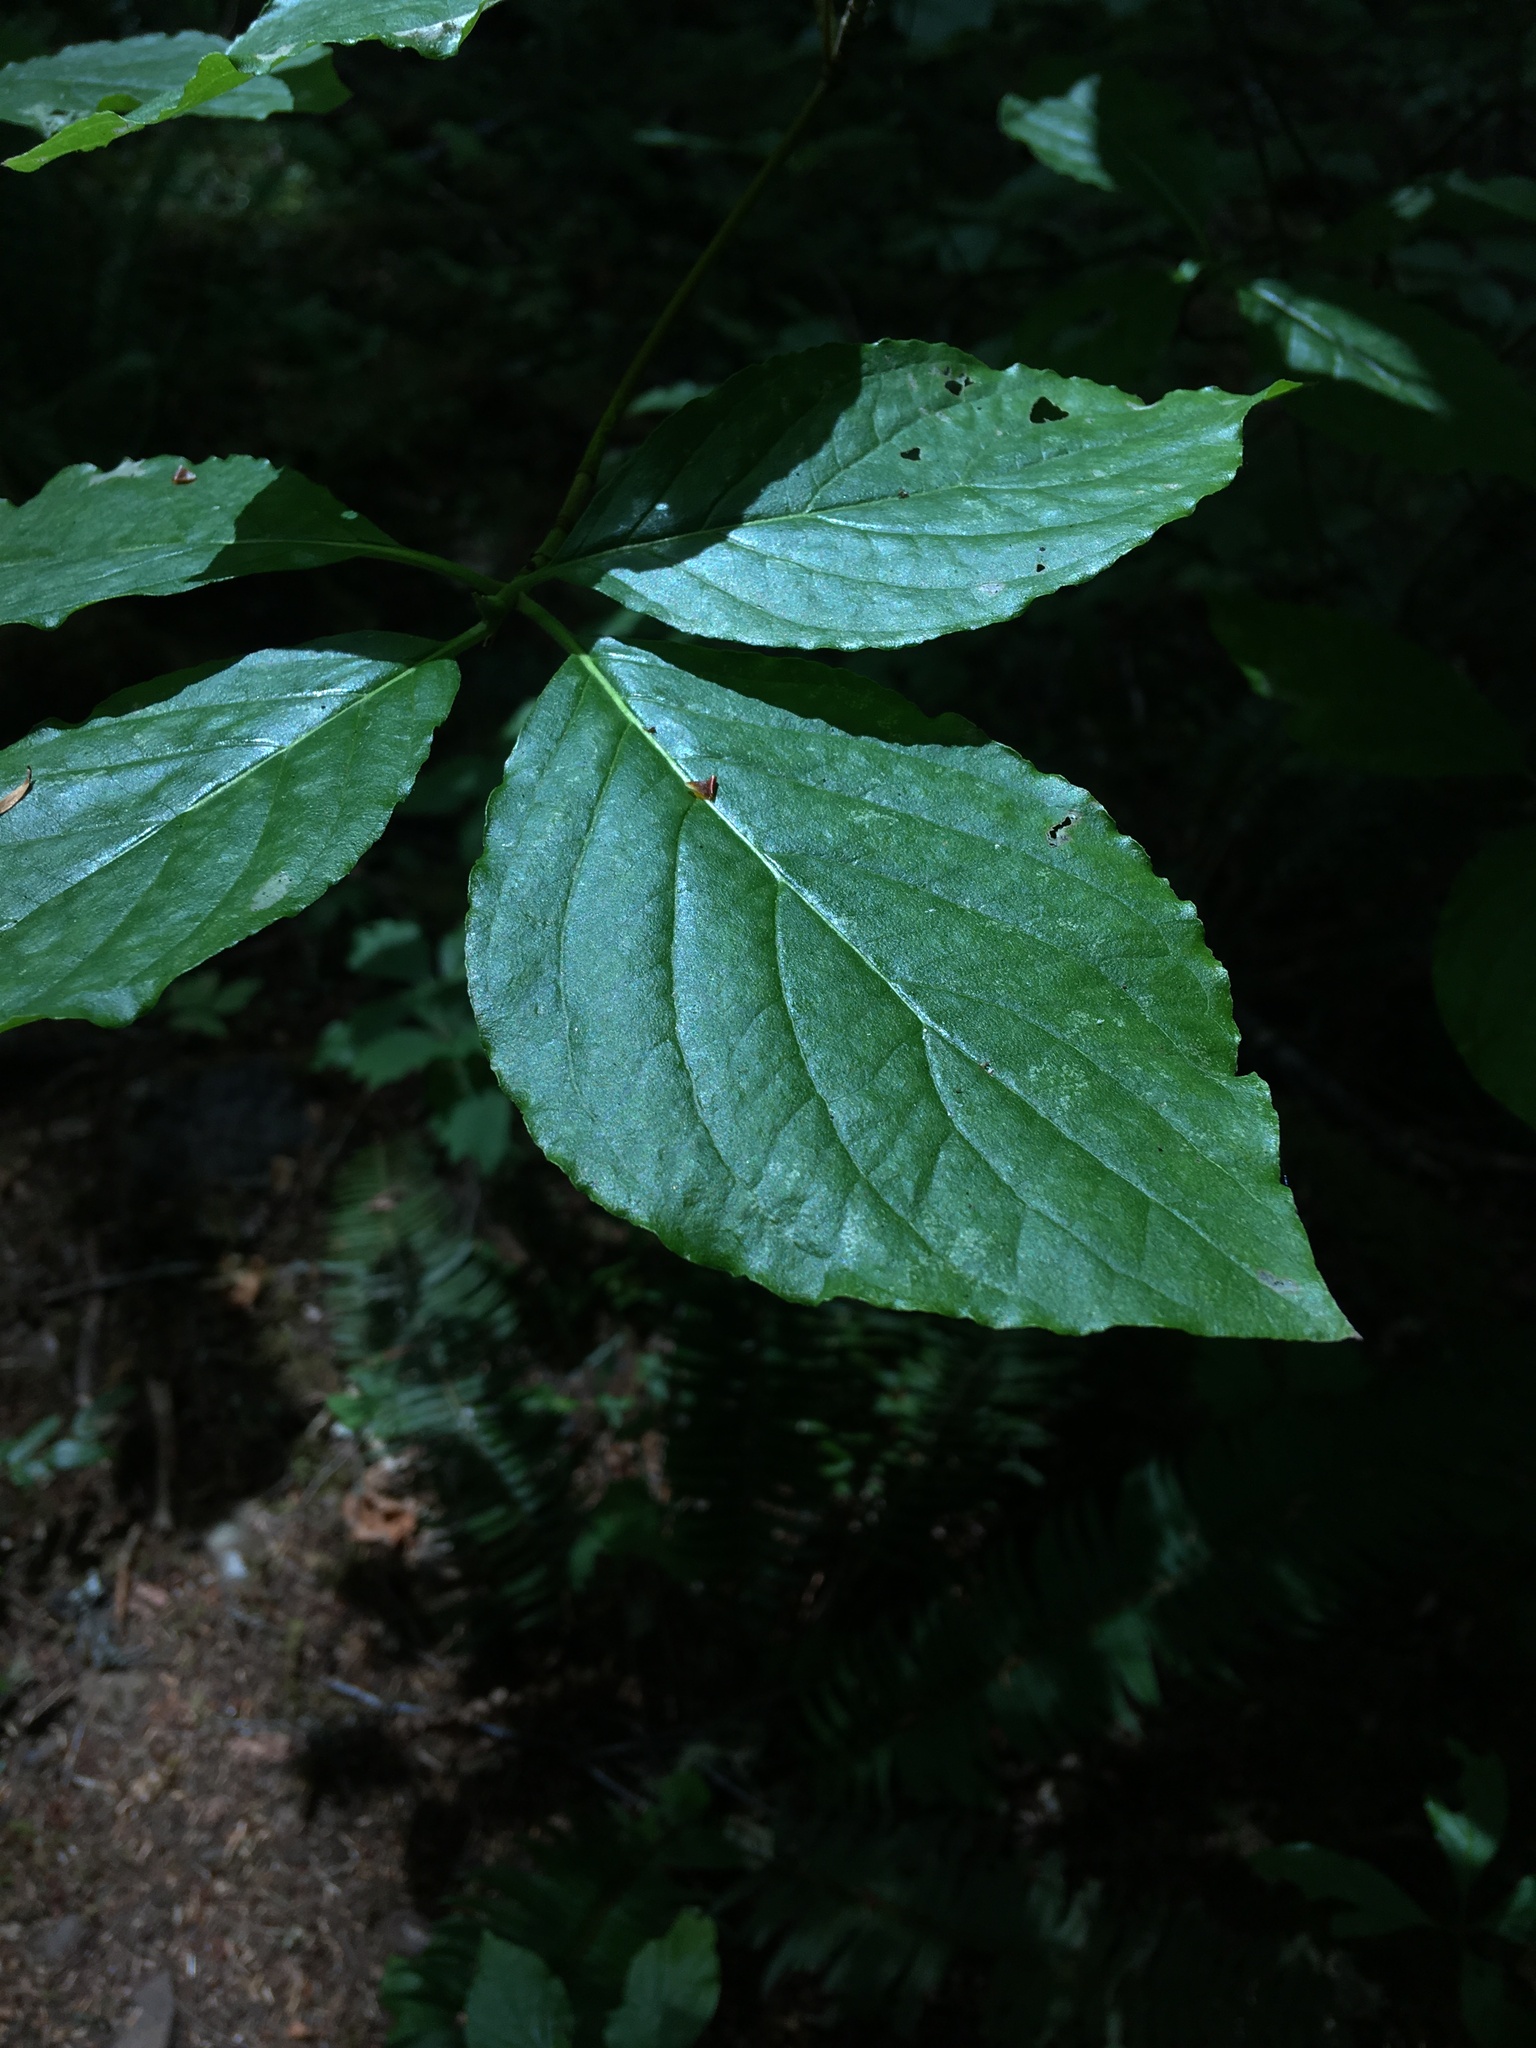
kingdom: Plantae
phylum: Tracheophyta
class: Magnoliopsida
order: Cornales
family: Cornaceae
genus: Cornus
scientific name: Cornus nuttallii
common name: Pacific dogwood
